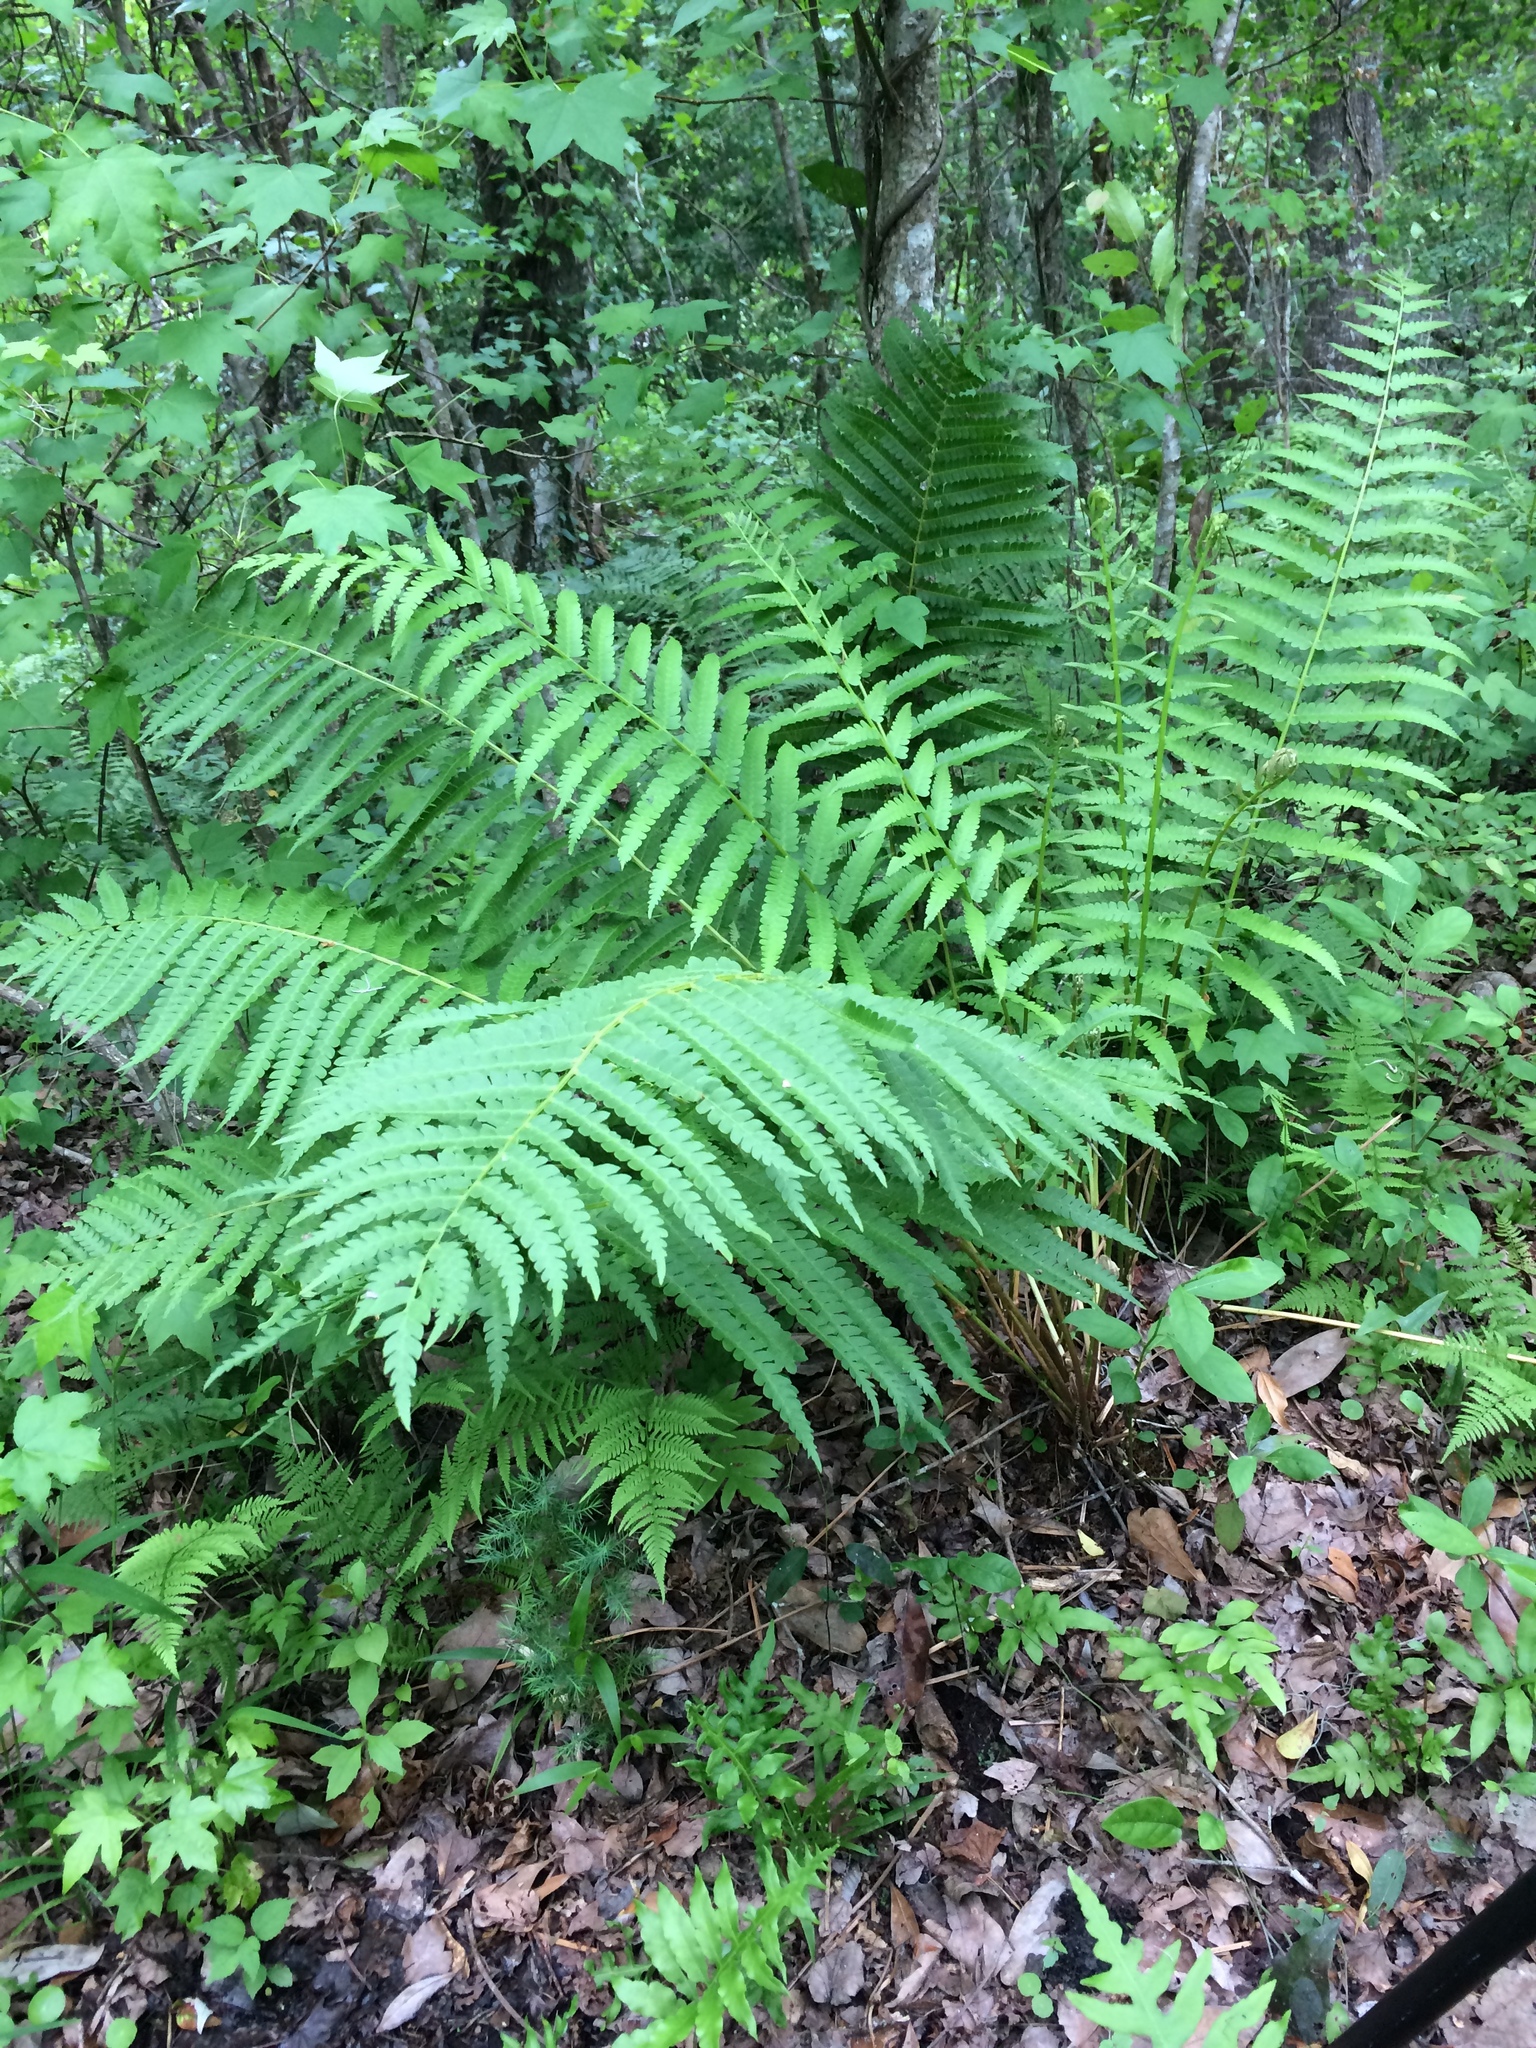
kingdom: Plantae
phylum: Tracheophyta
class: Polypodiopsida
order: Osmundales
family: Osmundaceae
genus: Osmundastrum
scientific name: Osmundastrum cinnamomeum
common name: Cinnamon fern
